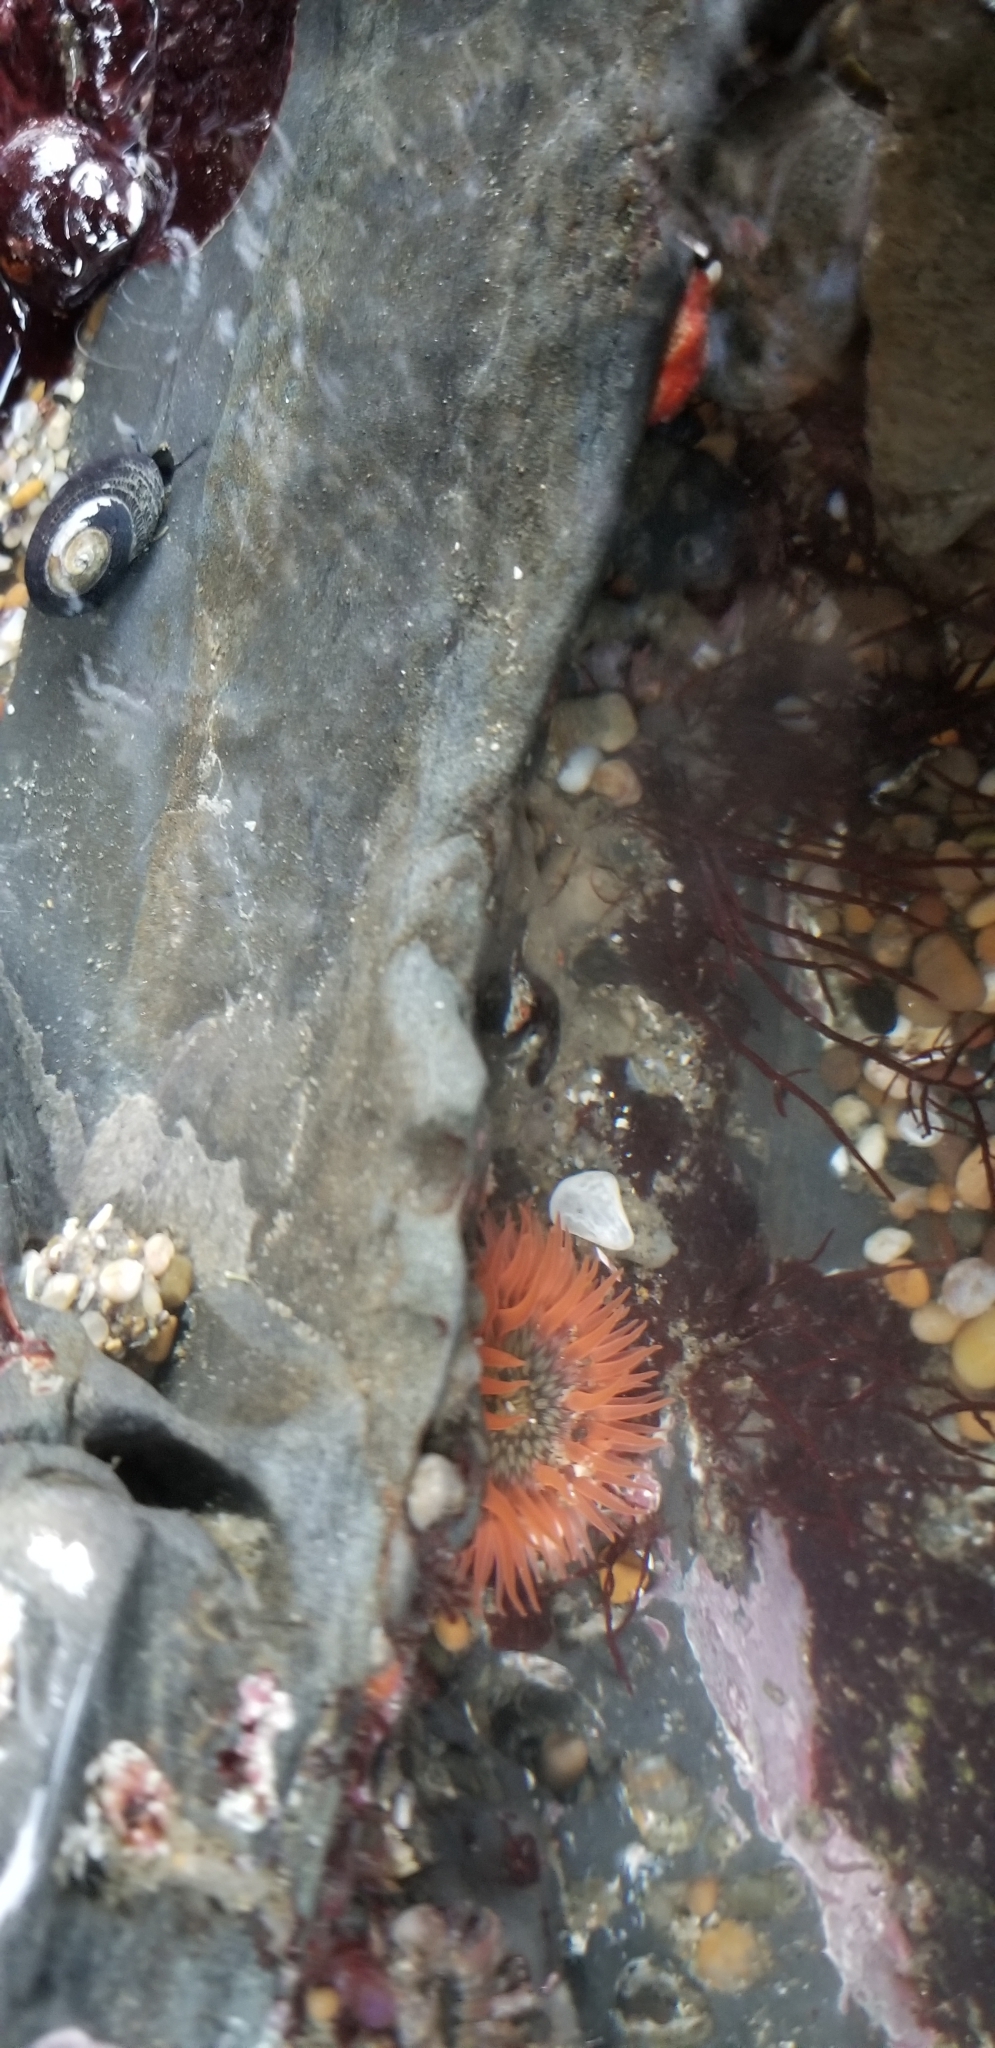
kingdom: Animalia
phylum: Cnidaria
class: Anthozoa
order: Actiniaria
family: Actiniidae
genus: Anthopleura
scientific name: Anthopleura artemisia
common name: Buried sea anemone
